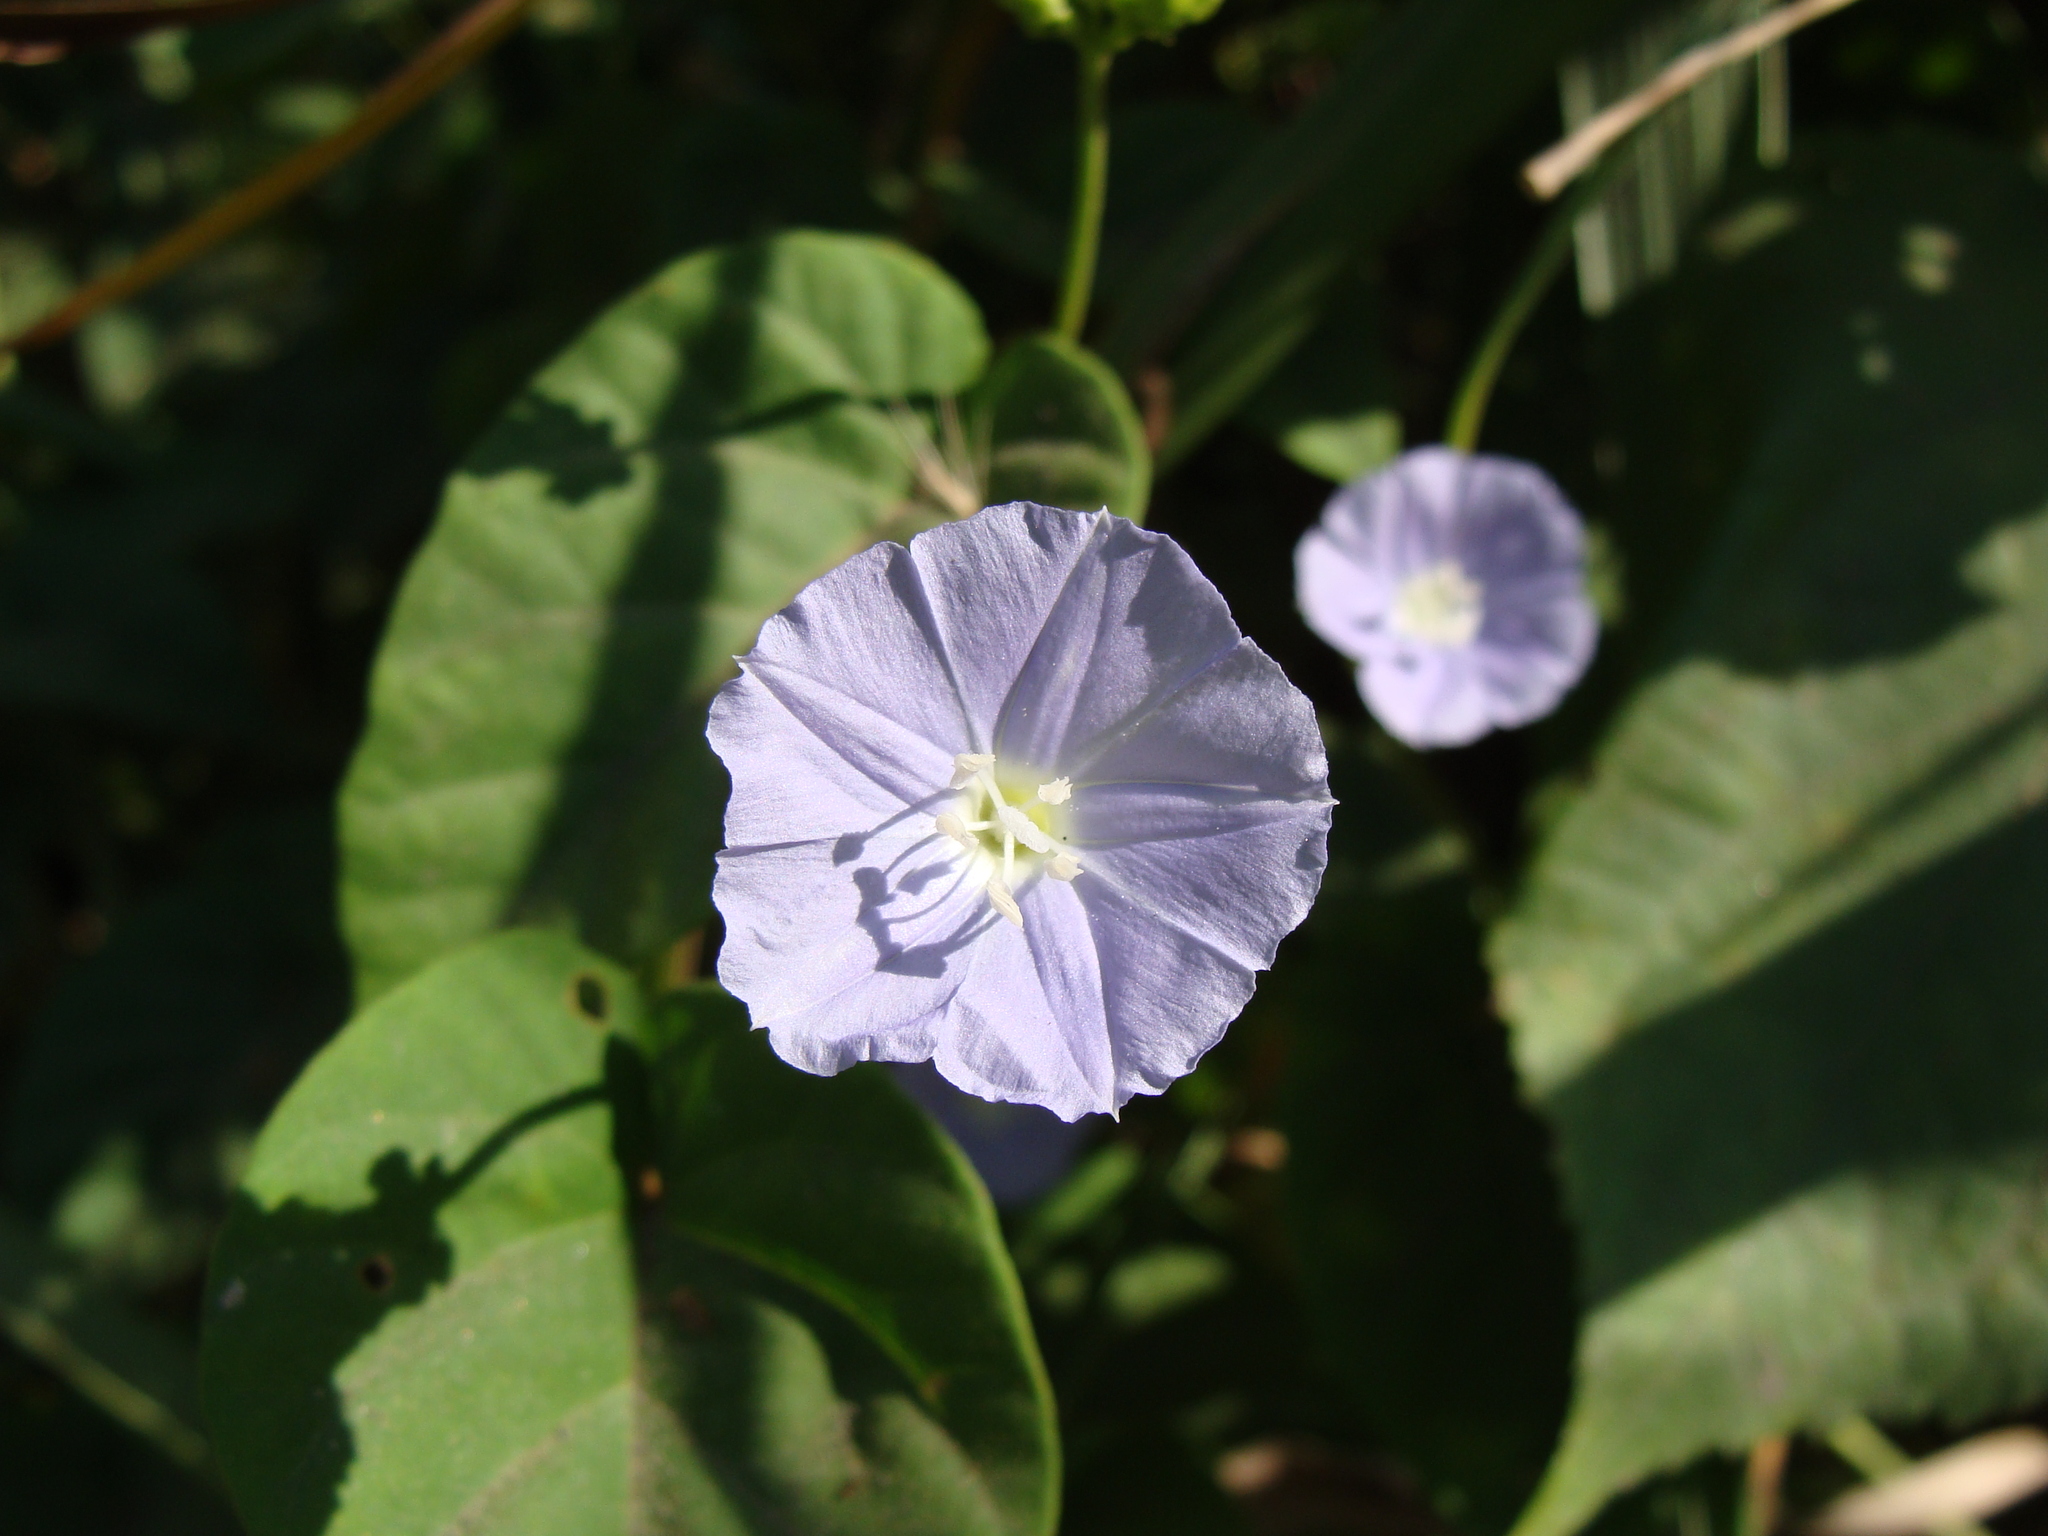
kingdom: Plantae
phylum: Tracheophyta
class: Magnoliopsida
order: Solanales
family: Convolvulaceae
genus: Jacquemontia
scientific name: Jacquemontia oaxacana
